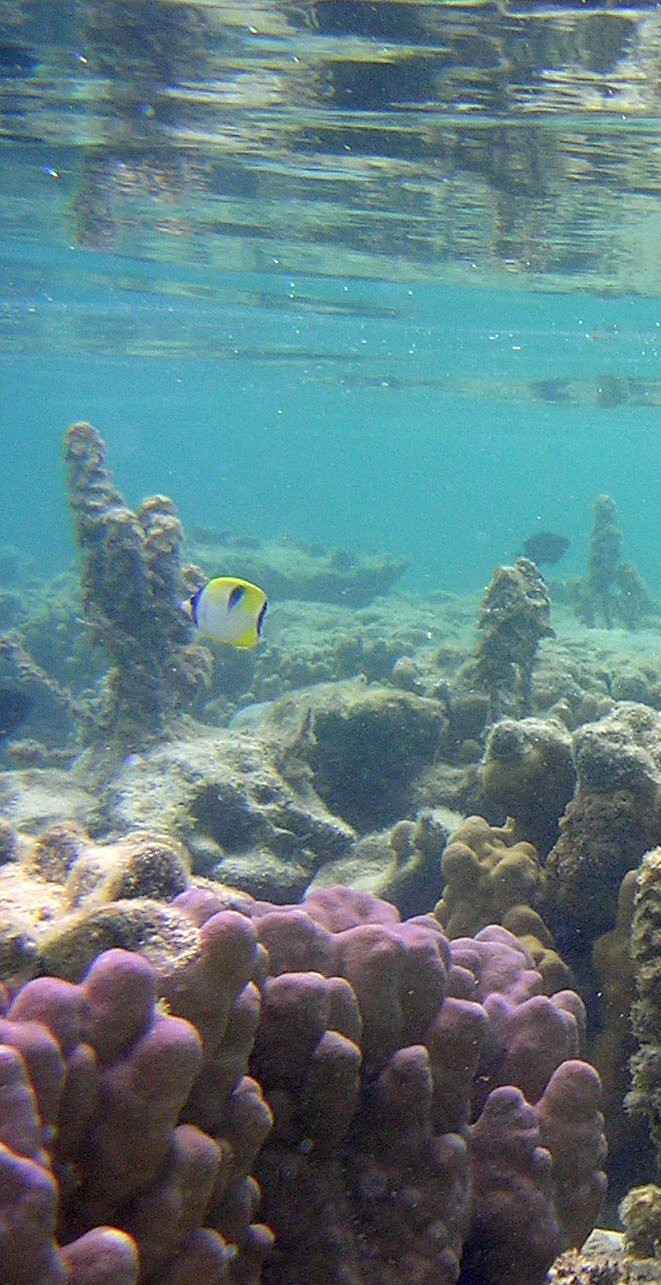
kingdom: Animalia
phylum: Chordata
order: Perciformes
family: Chaetodontidae
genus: Chaetodon
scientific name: Chaetodon unimaculatus
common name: Teardrop butterflyfish
